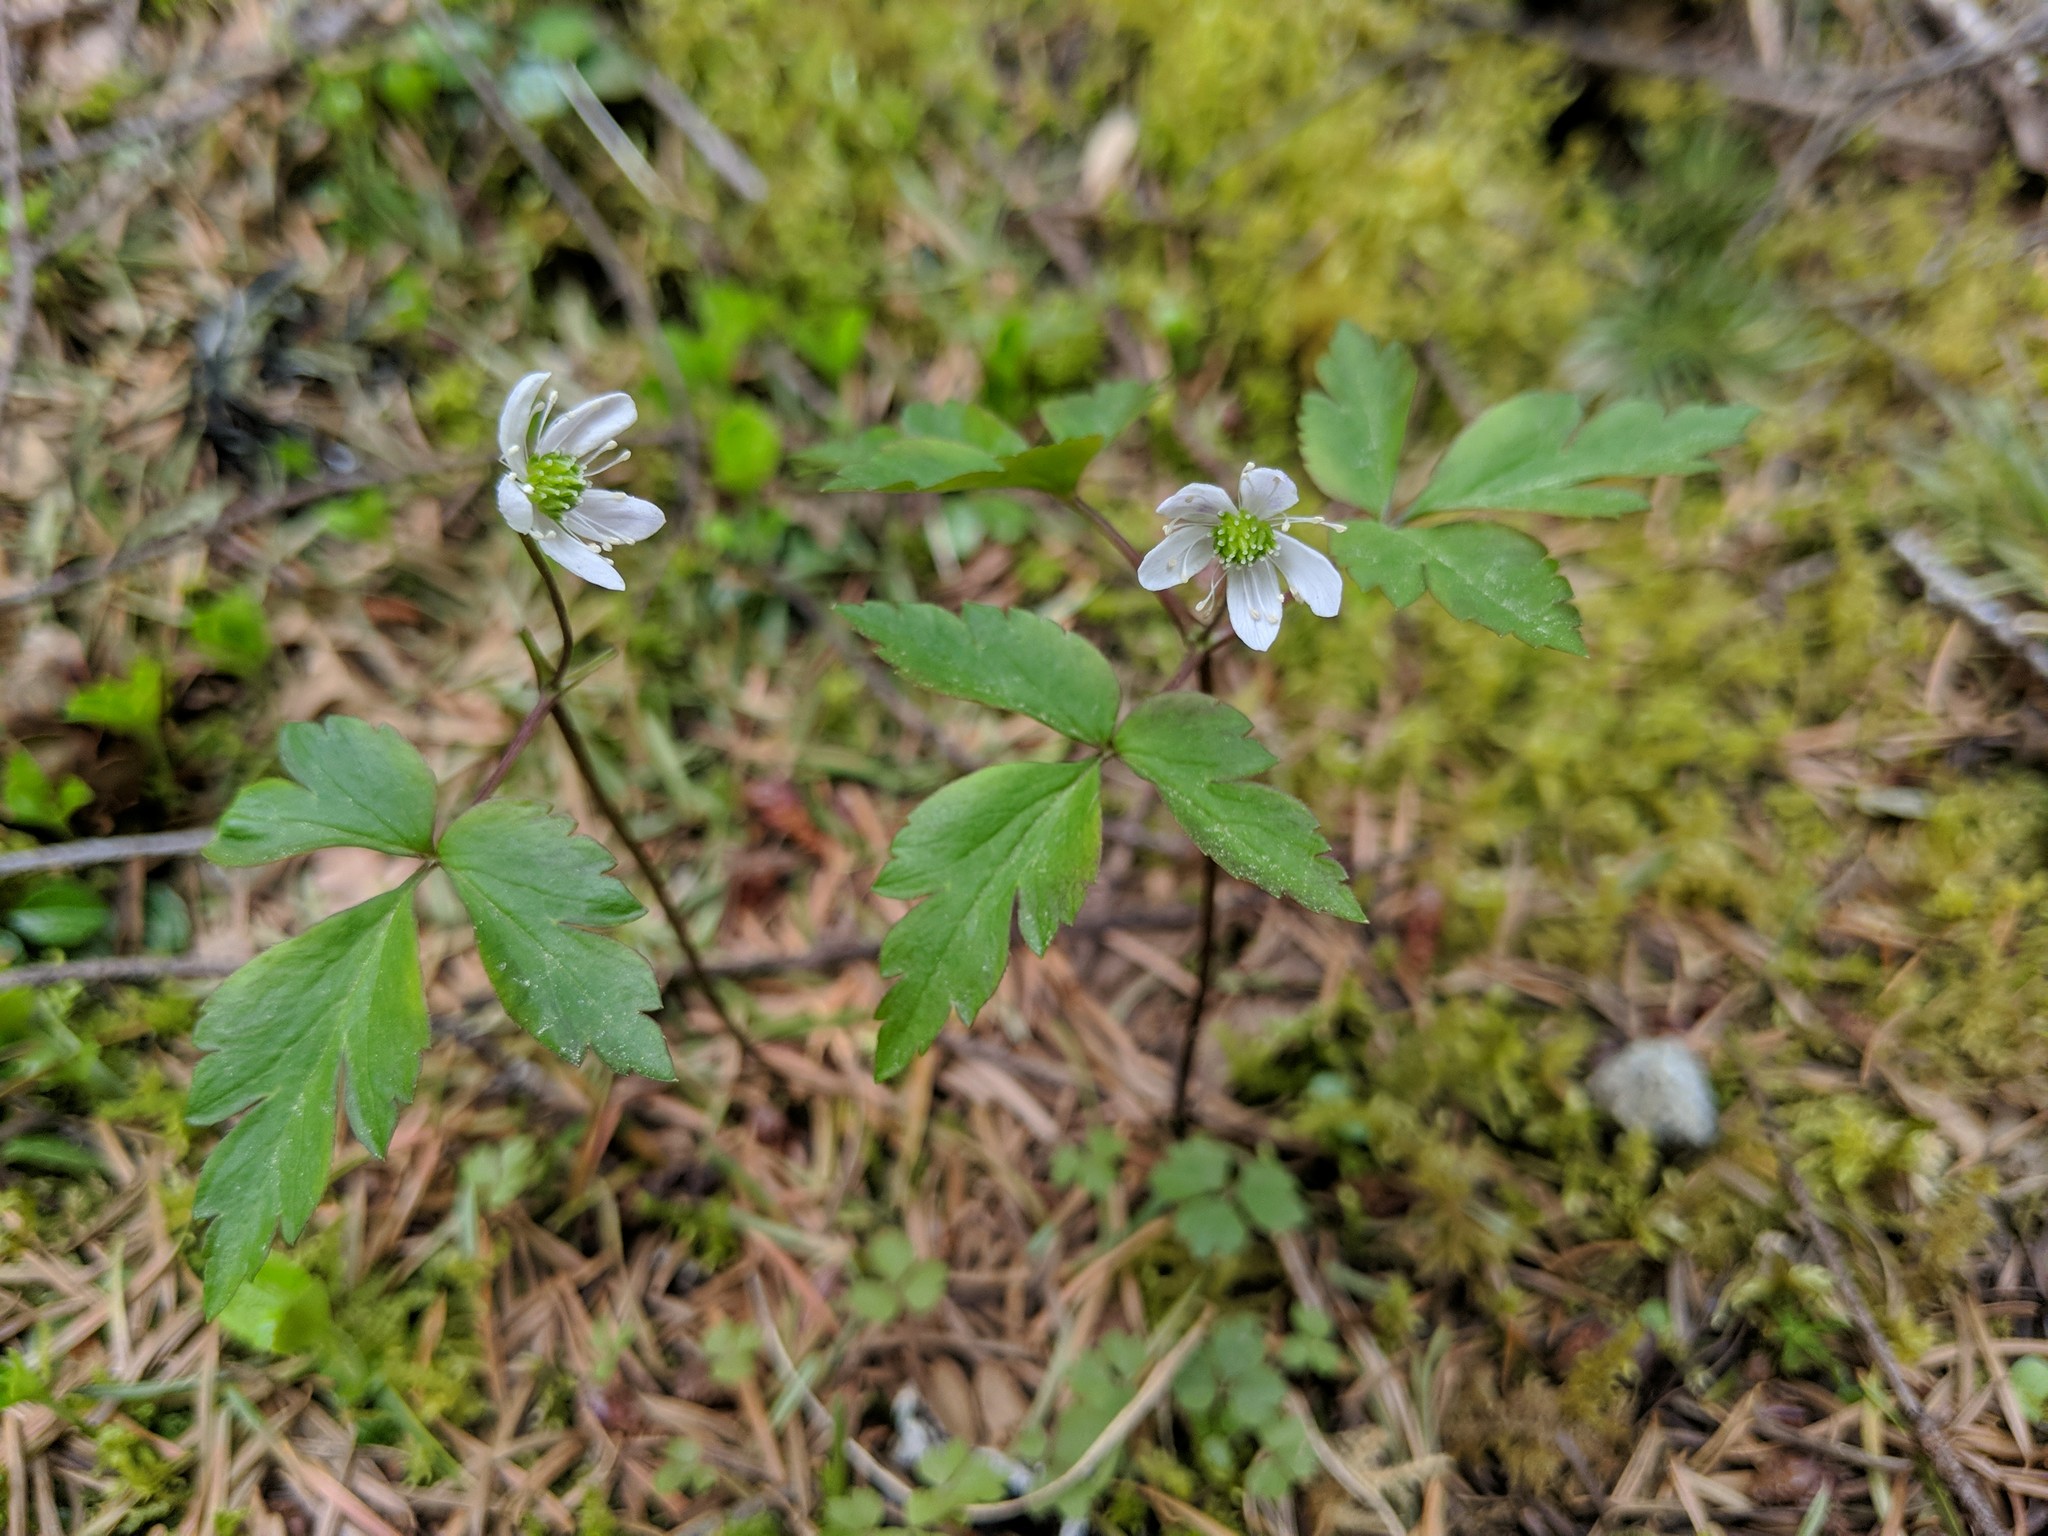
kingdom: Plantae
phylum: Tracheophyta
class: Magnoliopsida
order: Ranunculales
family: Ranunculaceae
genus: Anemone
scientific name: Anemone
